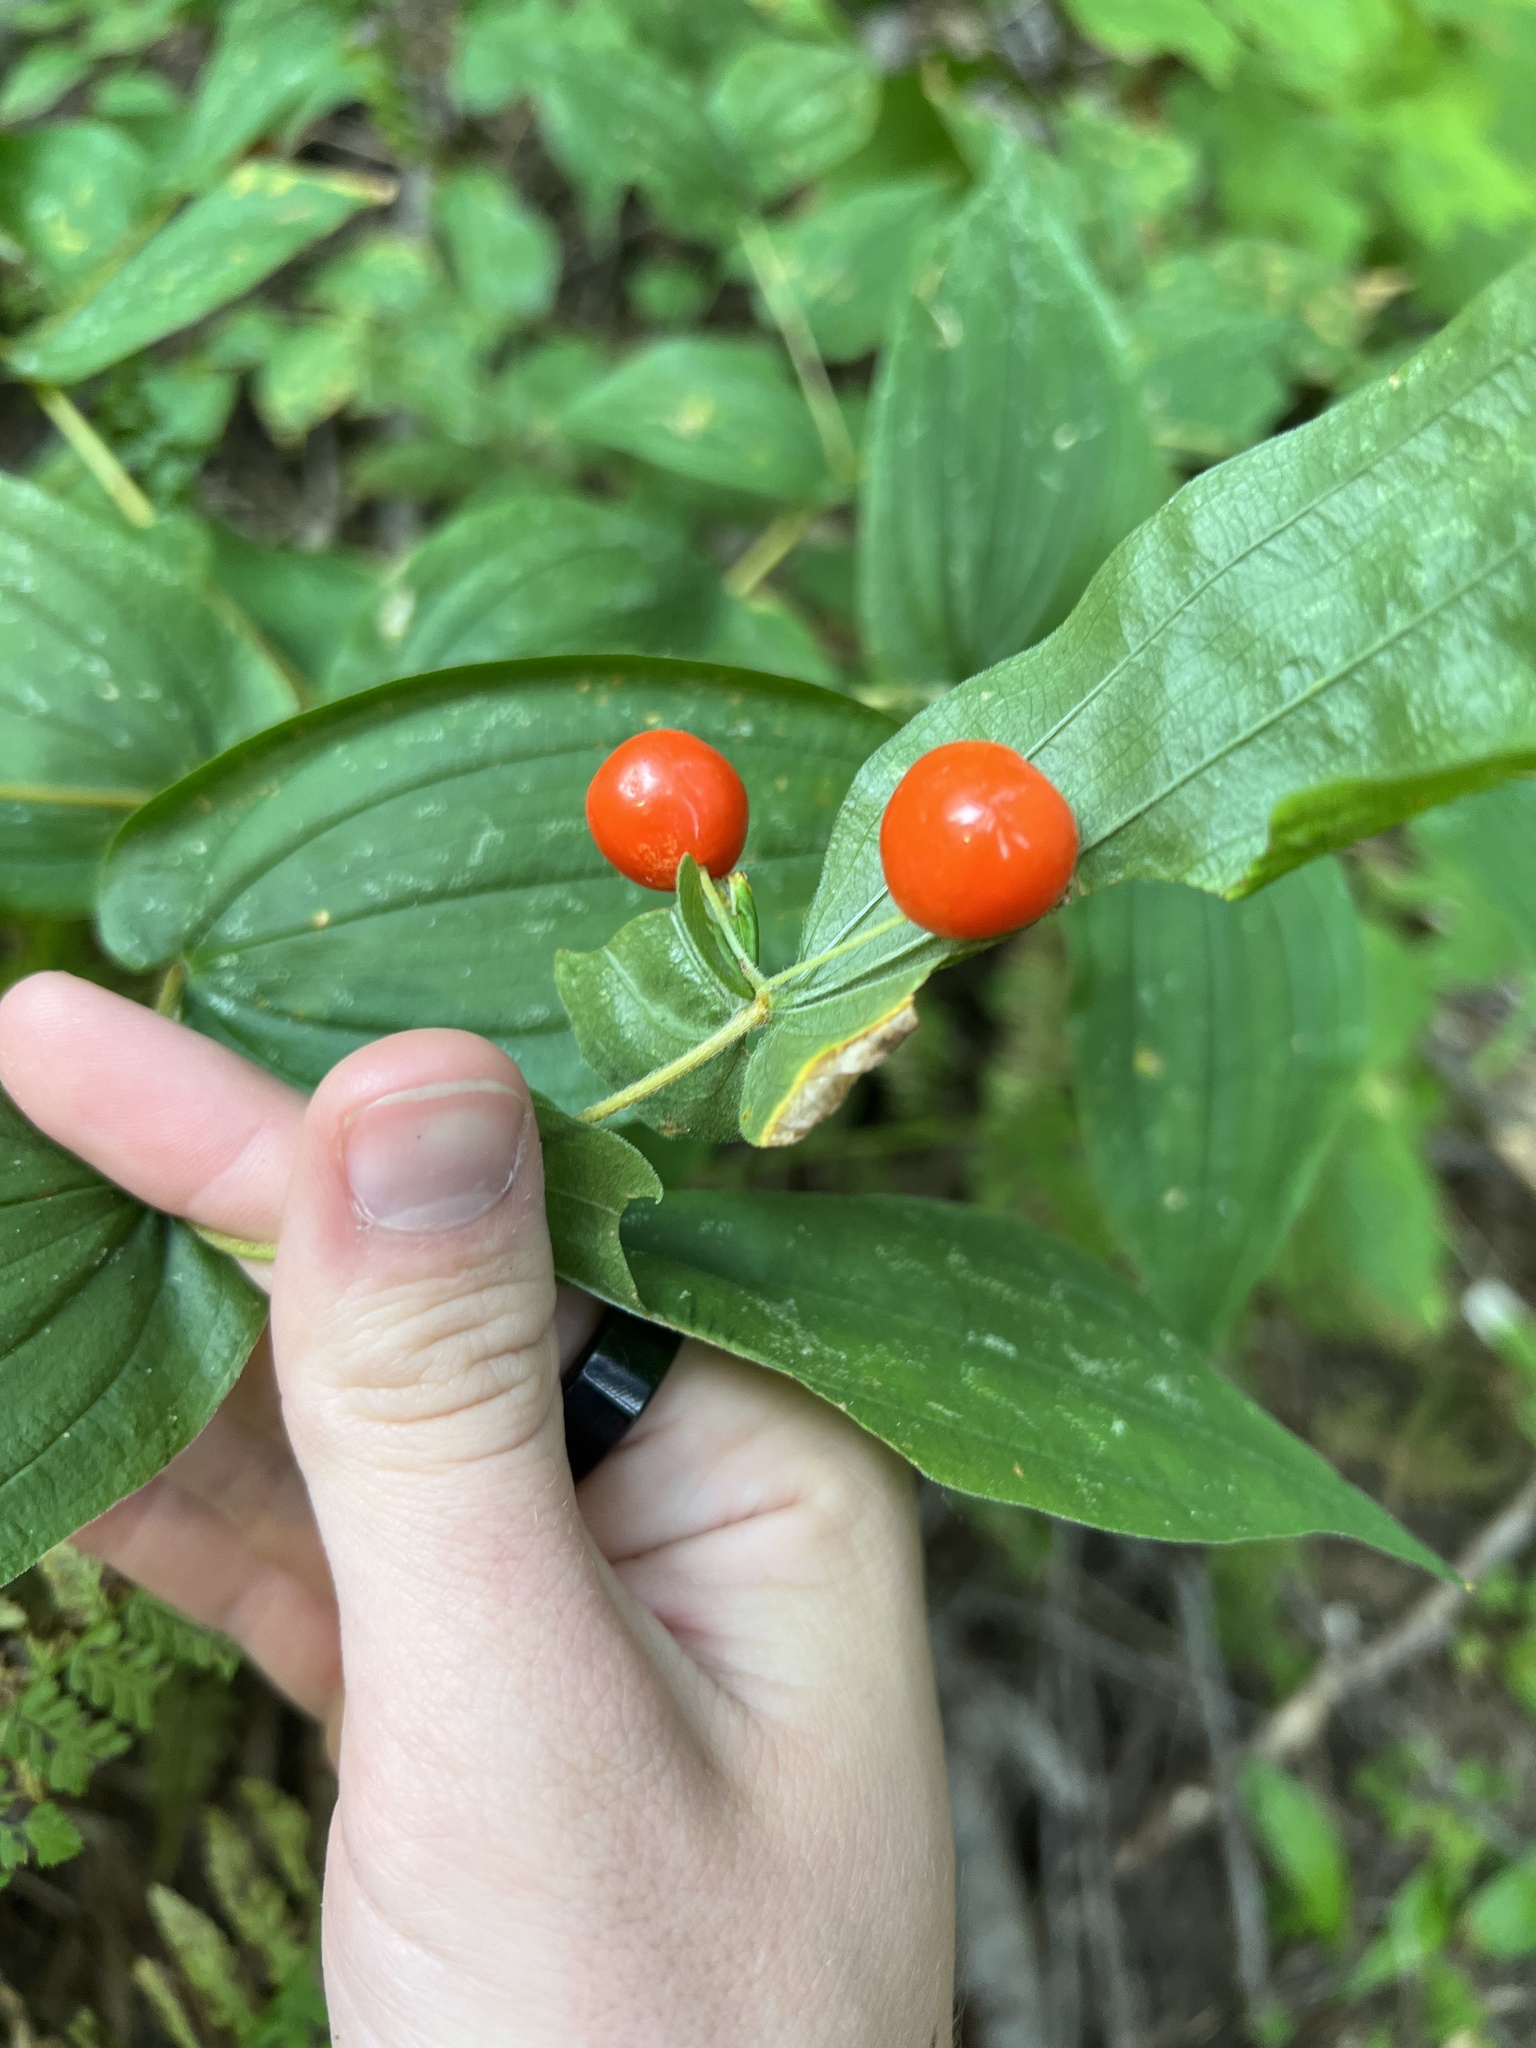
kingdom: Plantae
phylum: Tracheophyta
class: Liliopsida
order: Liliales
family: Liliaceae
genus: Prosartes
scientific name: Prosartes hookeri
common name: Fairy-bells
